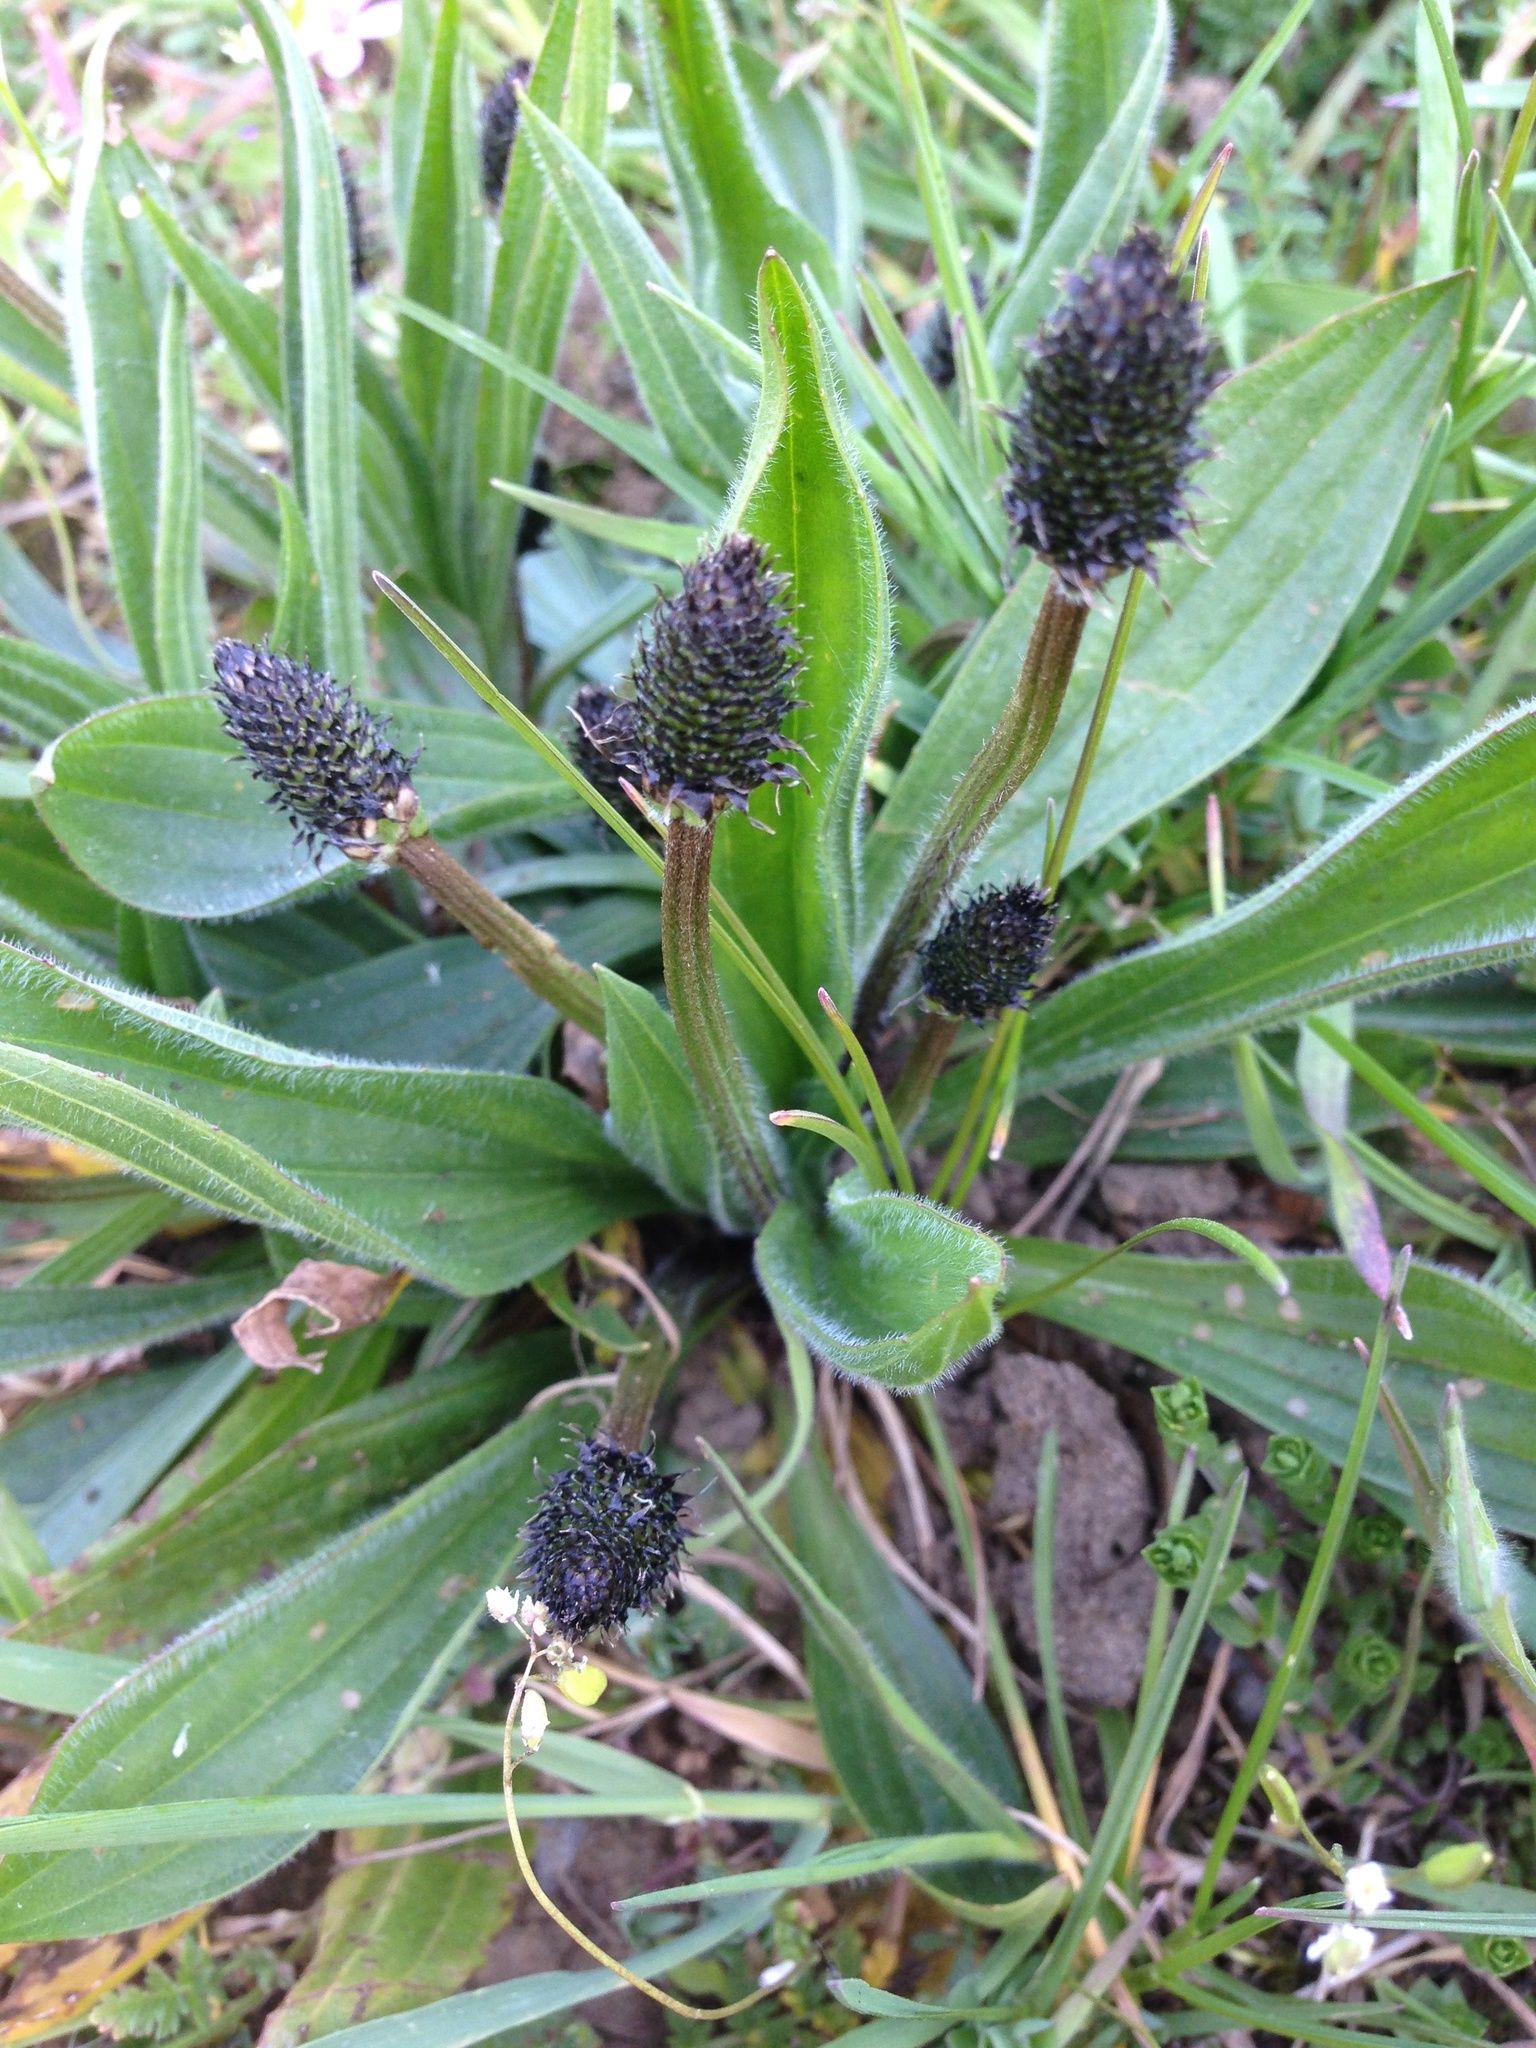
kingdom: Plantae
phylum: Tracheophyta
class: Magnoliopsida
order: Lamiales
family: Plantaginaceae
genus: Plantago
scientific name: Plantago lanceolata
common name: Ribwort plantain
